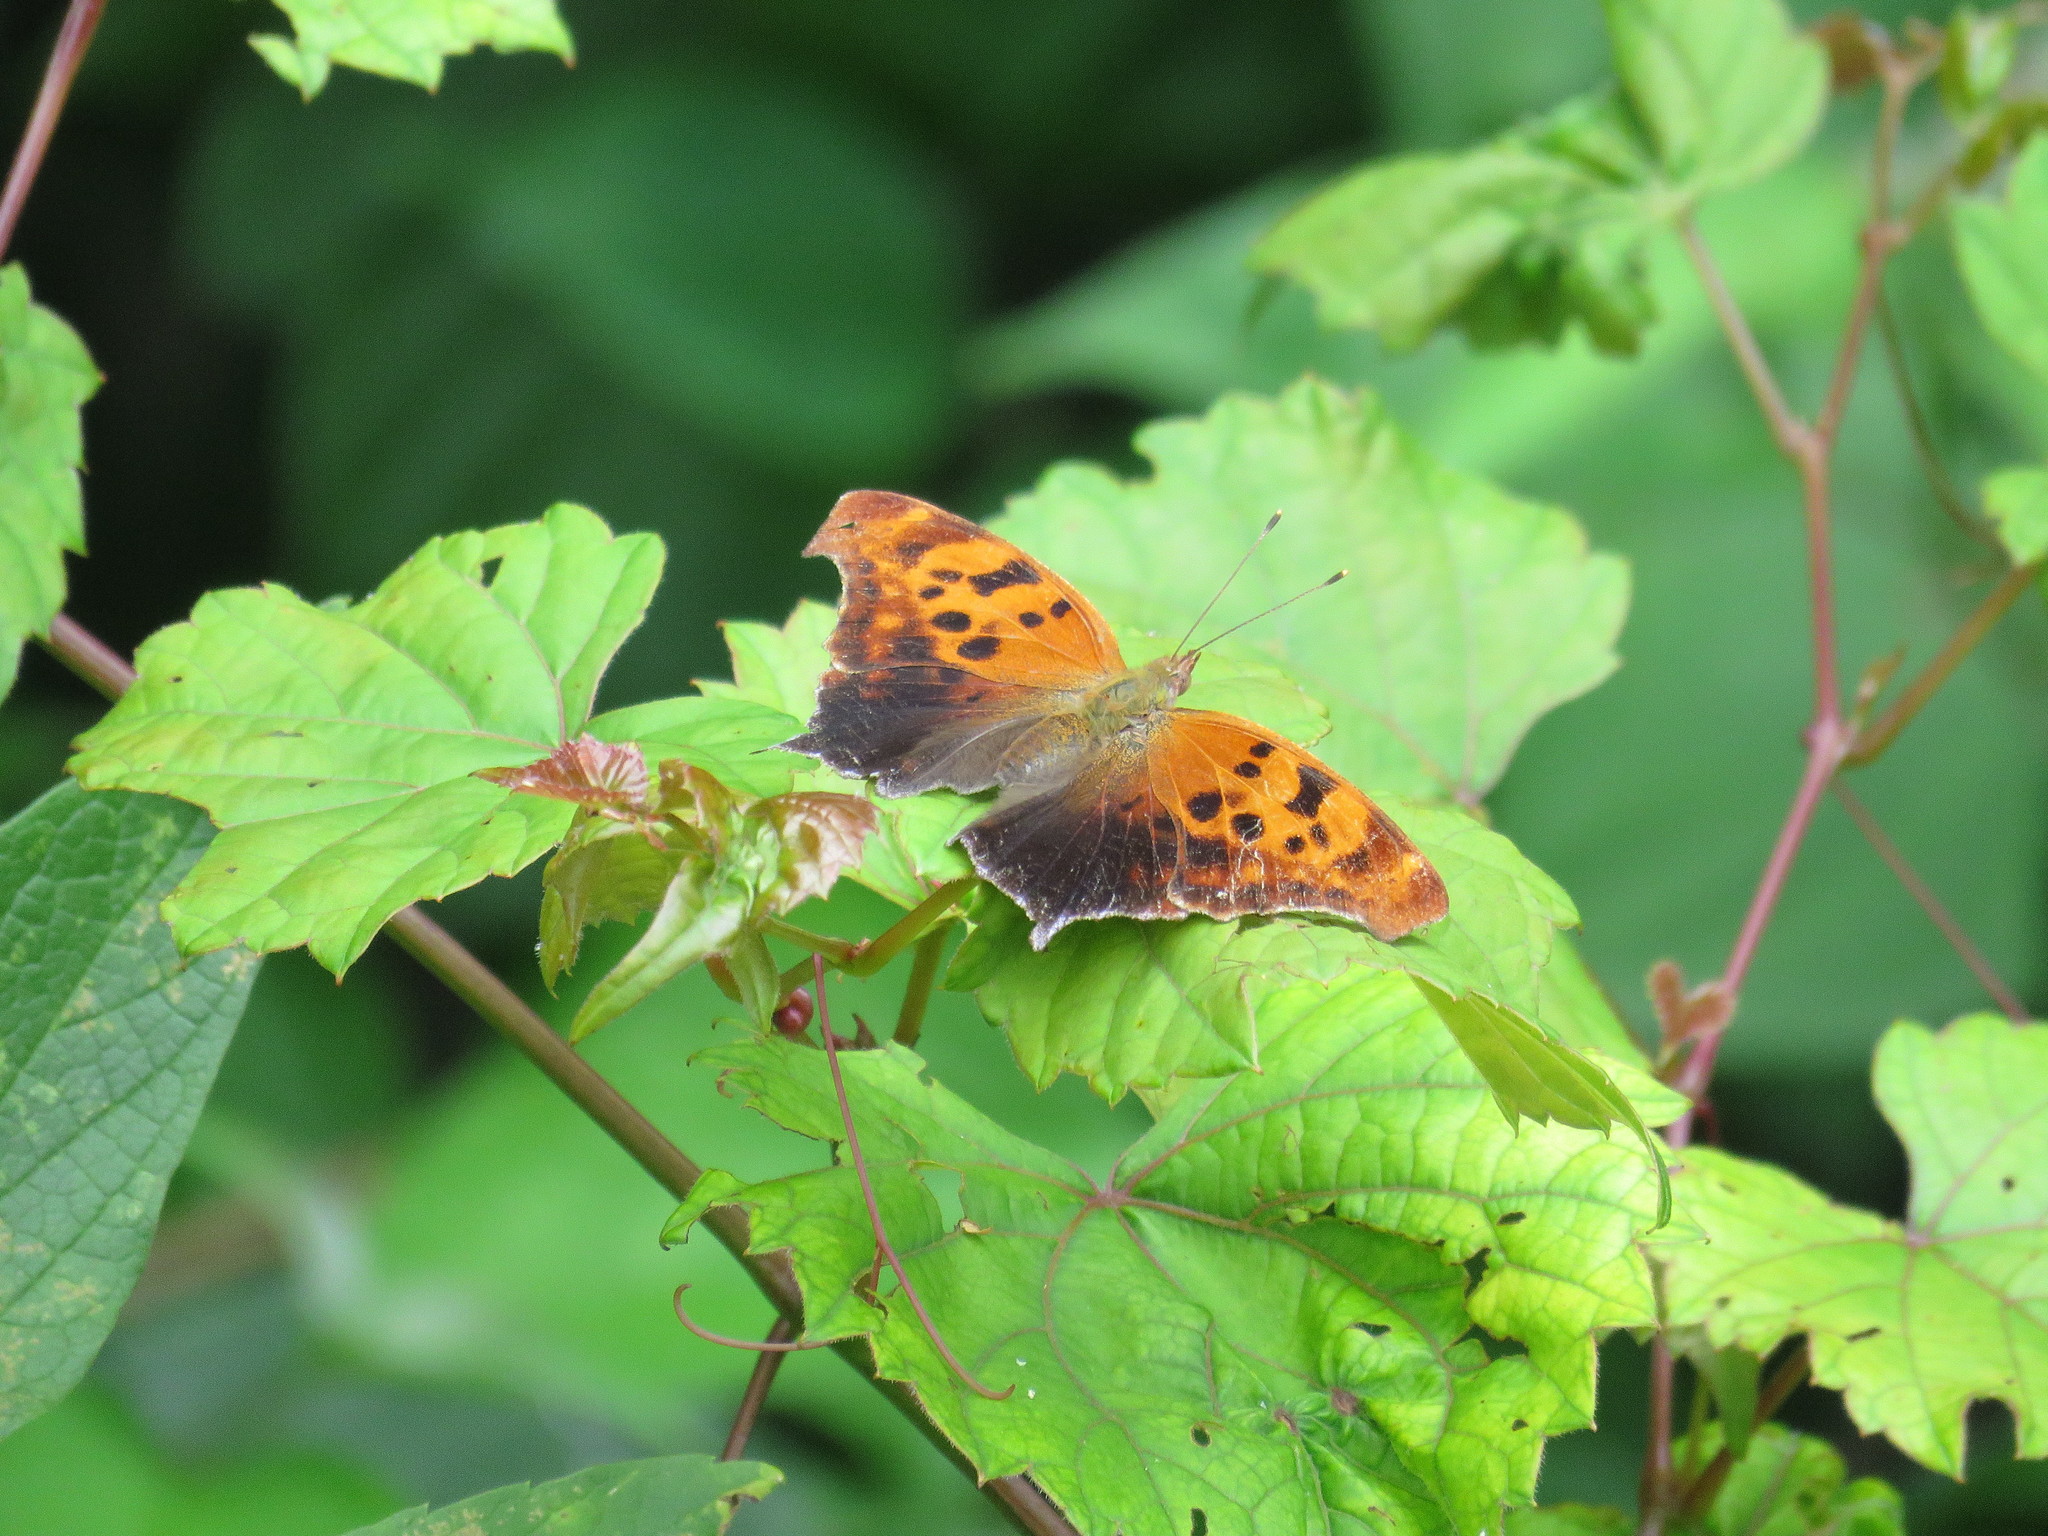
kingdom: Animalia
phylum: Arthropoda
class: Insecta
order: Lepidoptera
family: Nymphalidae
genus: Polygonia
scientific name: Polygonia interrogationis
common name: Question mark
